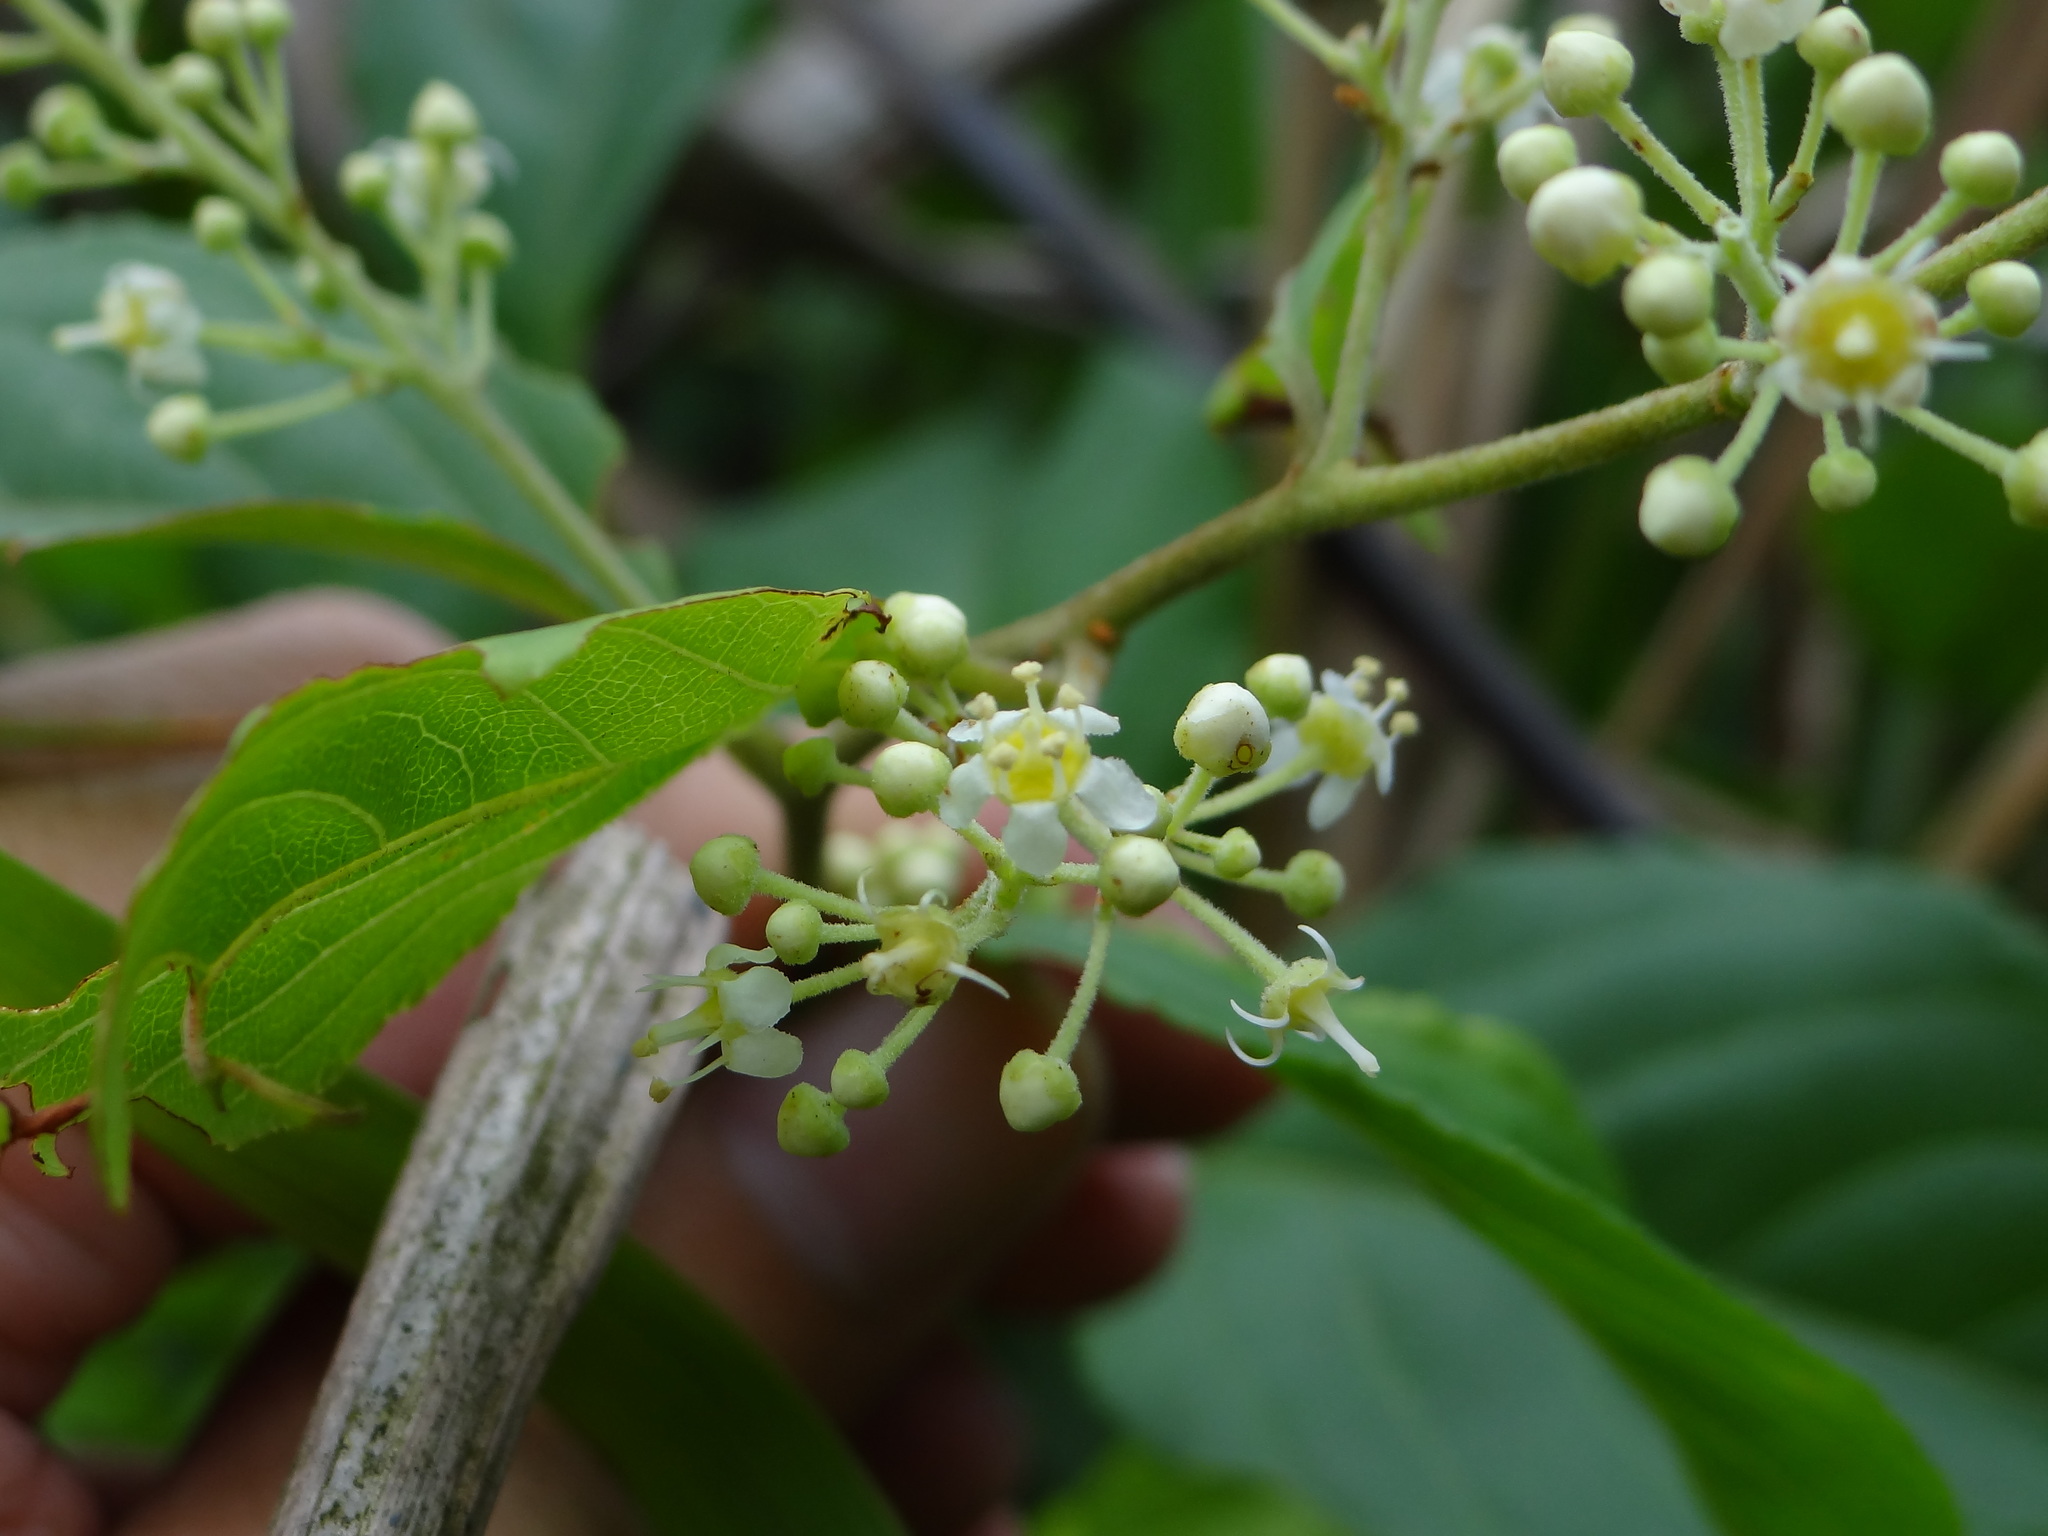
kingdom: Plantae
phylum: Tracheophyta
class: Magnoliopsida
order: Celastrales
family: Celastraceae
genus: Tripterygium
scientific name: Tripterygium wilfordii
